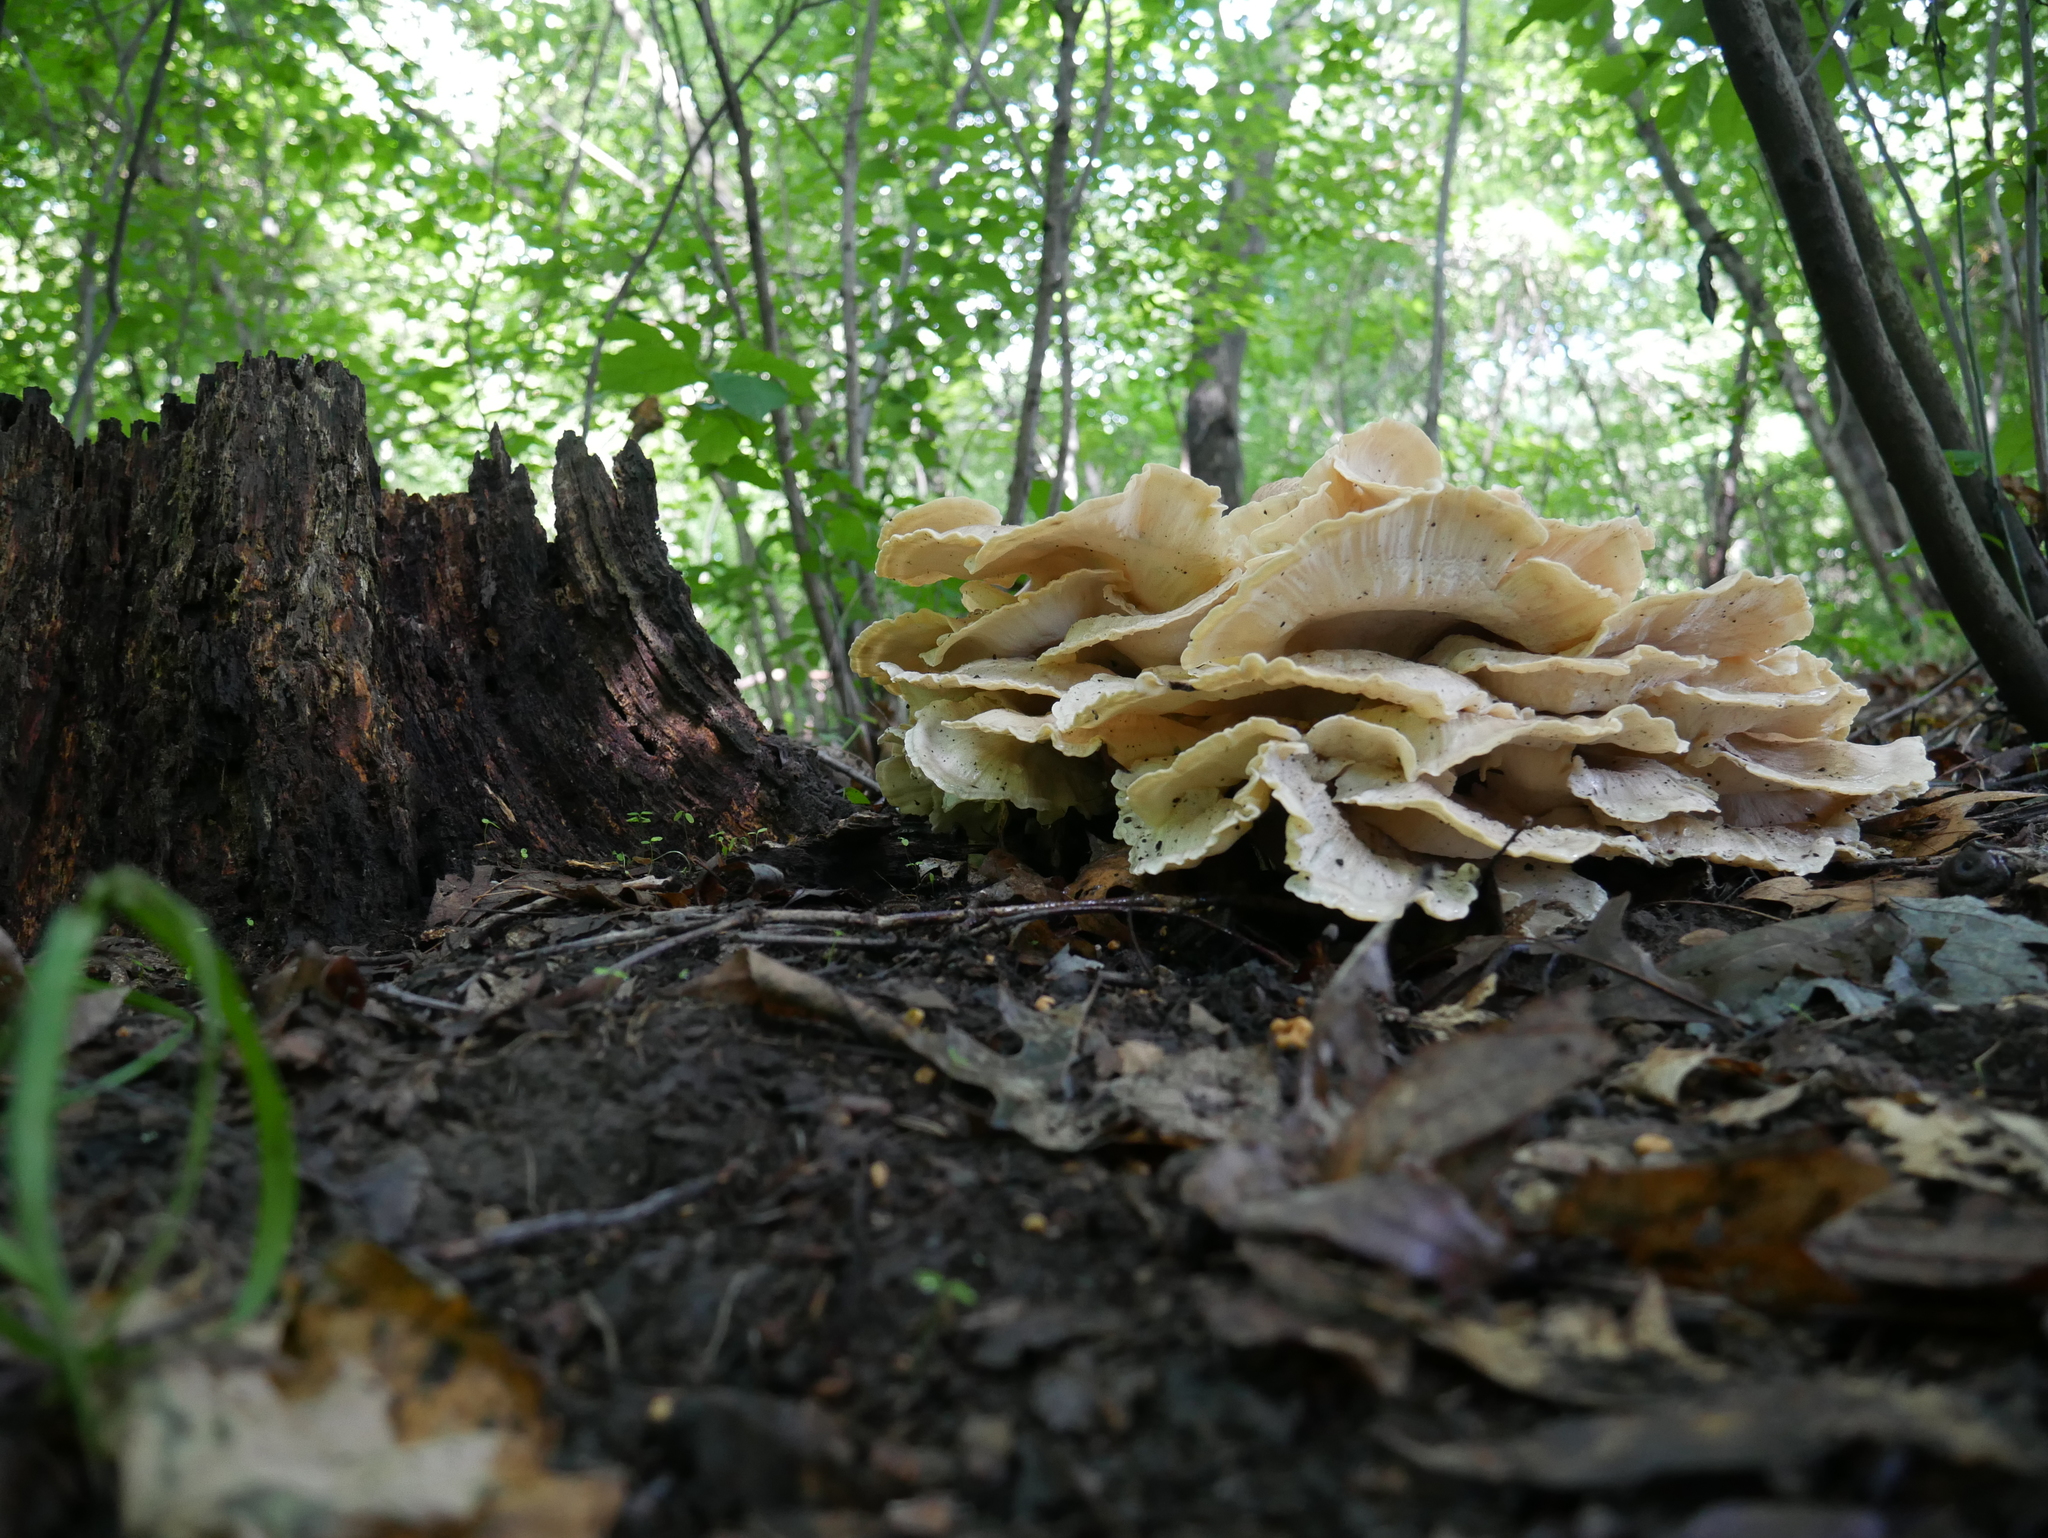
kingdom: Fungi
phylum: Basidiomycota
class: Agaricomycetes
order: Polyporales
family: Meripilaceae
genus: Meripilus
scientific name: Meripilus sumstinei
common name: Black-staining polypore
